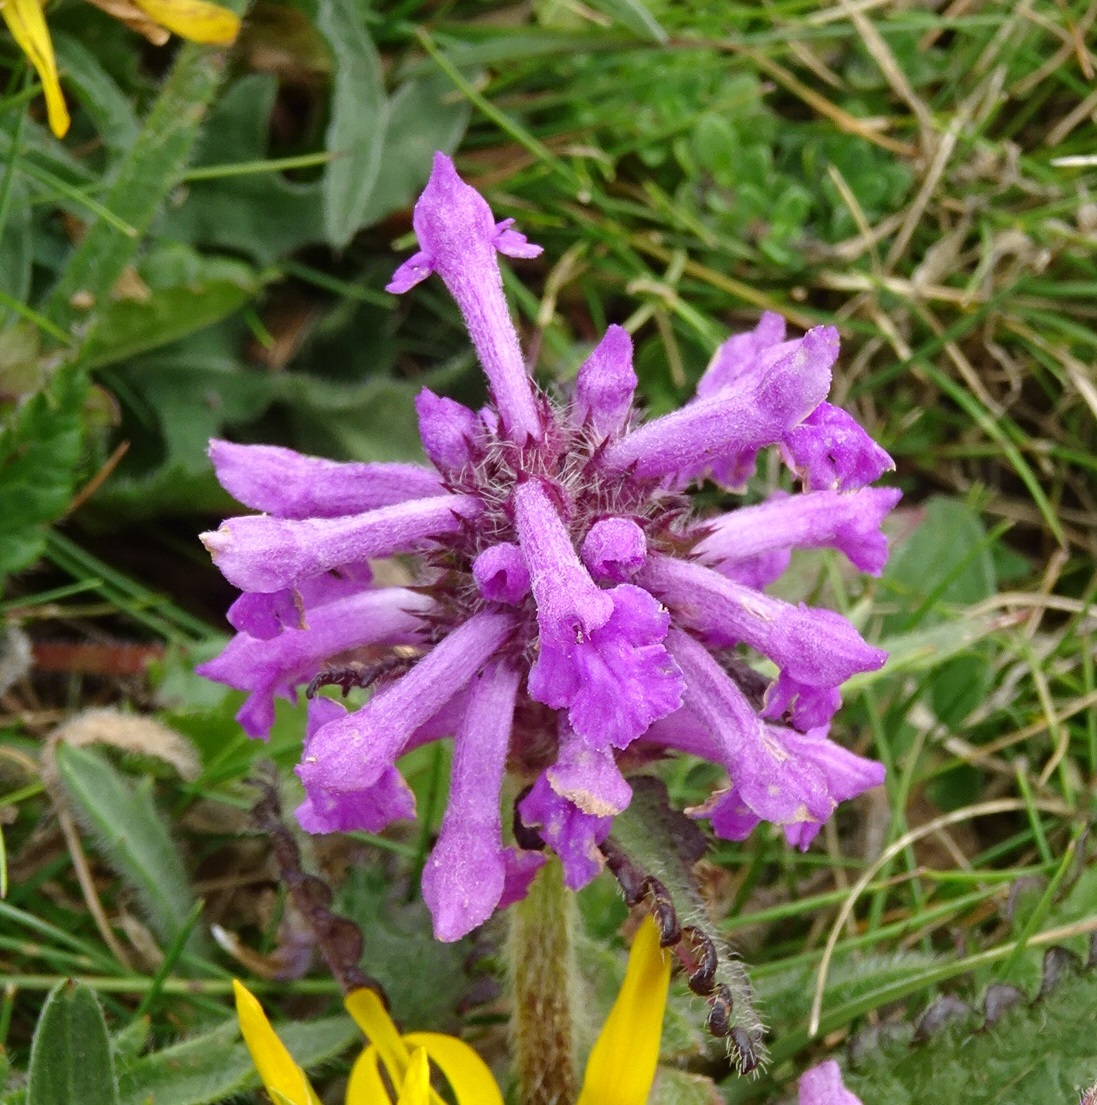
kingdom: Plantae
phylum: Tracheophyta
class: Magnoliopsida
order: Lamiales
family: Lamiaceae
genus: Betonica
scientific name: Betonica officinalis
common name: Bishop's-wort
